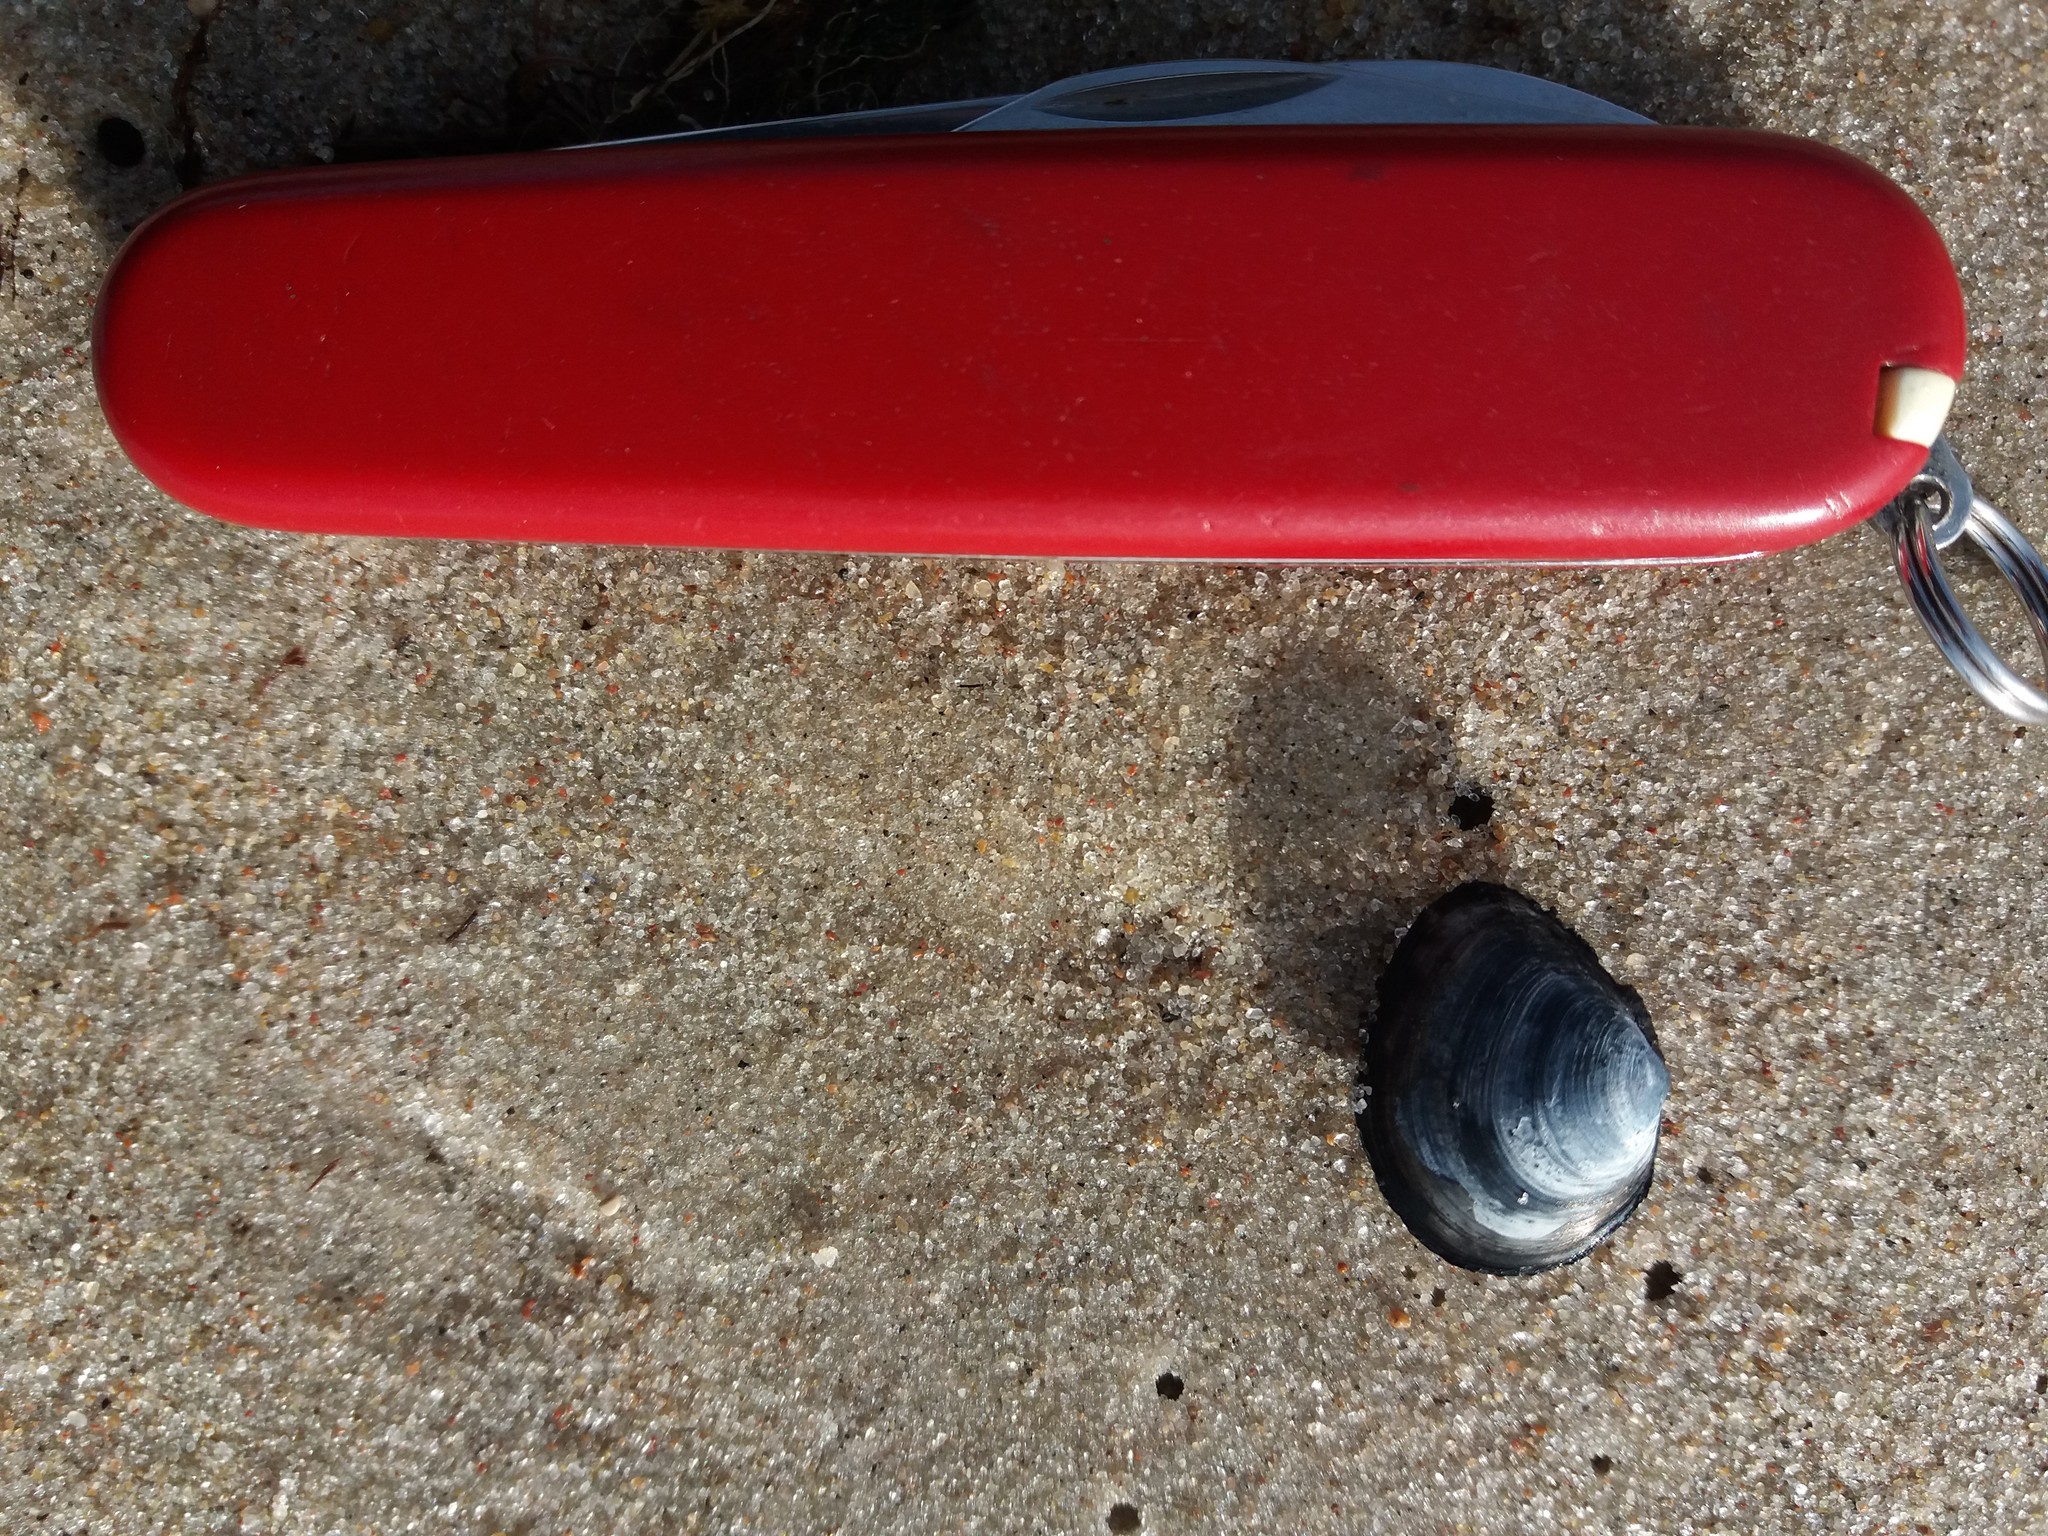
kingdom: Animalia
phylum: Mollusca
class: Bivalvia
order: Cardiida
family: Tellinidae
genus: Macoma
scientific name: Macoma balthica
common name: Baltic tellin
